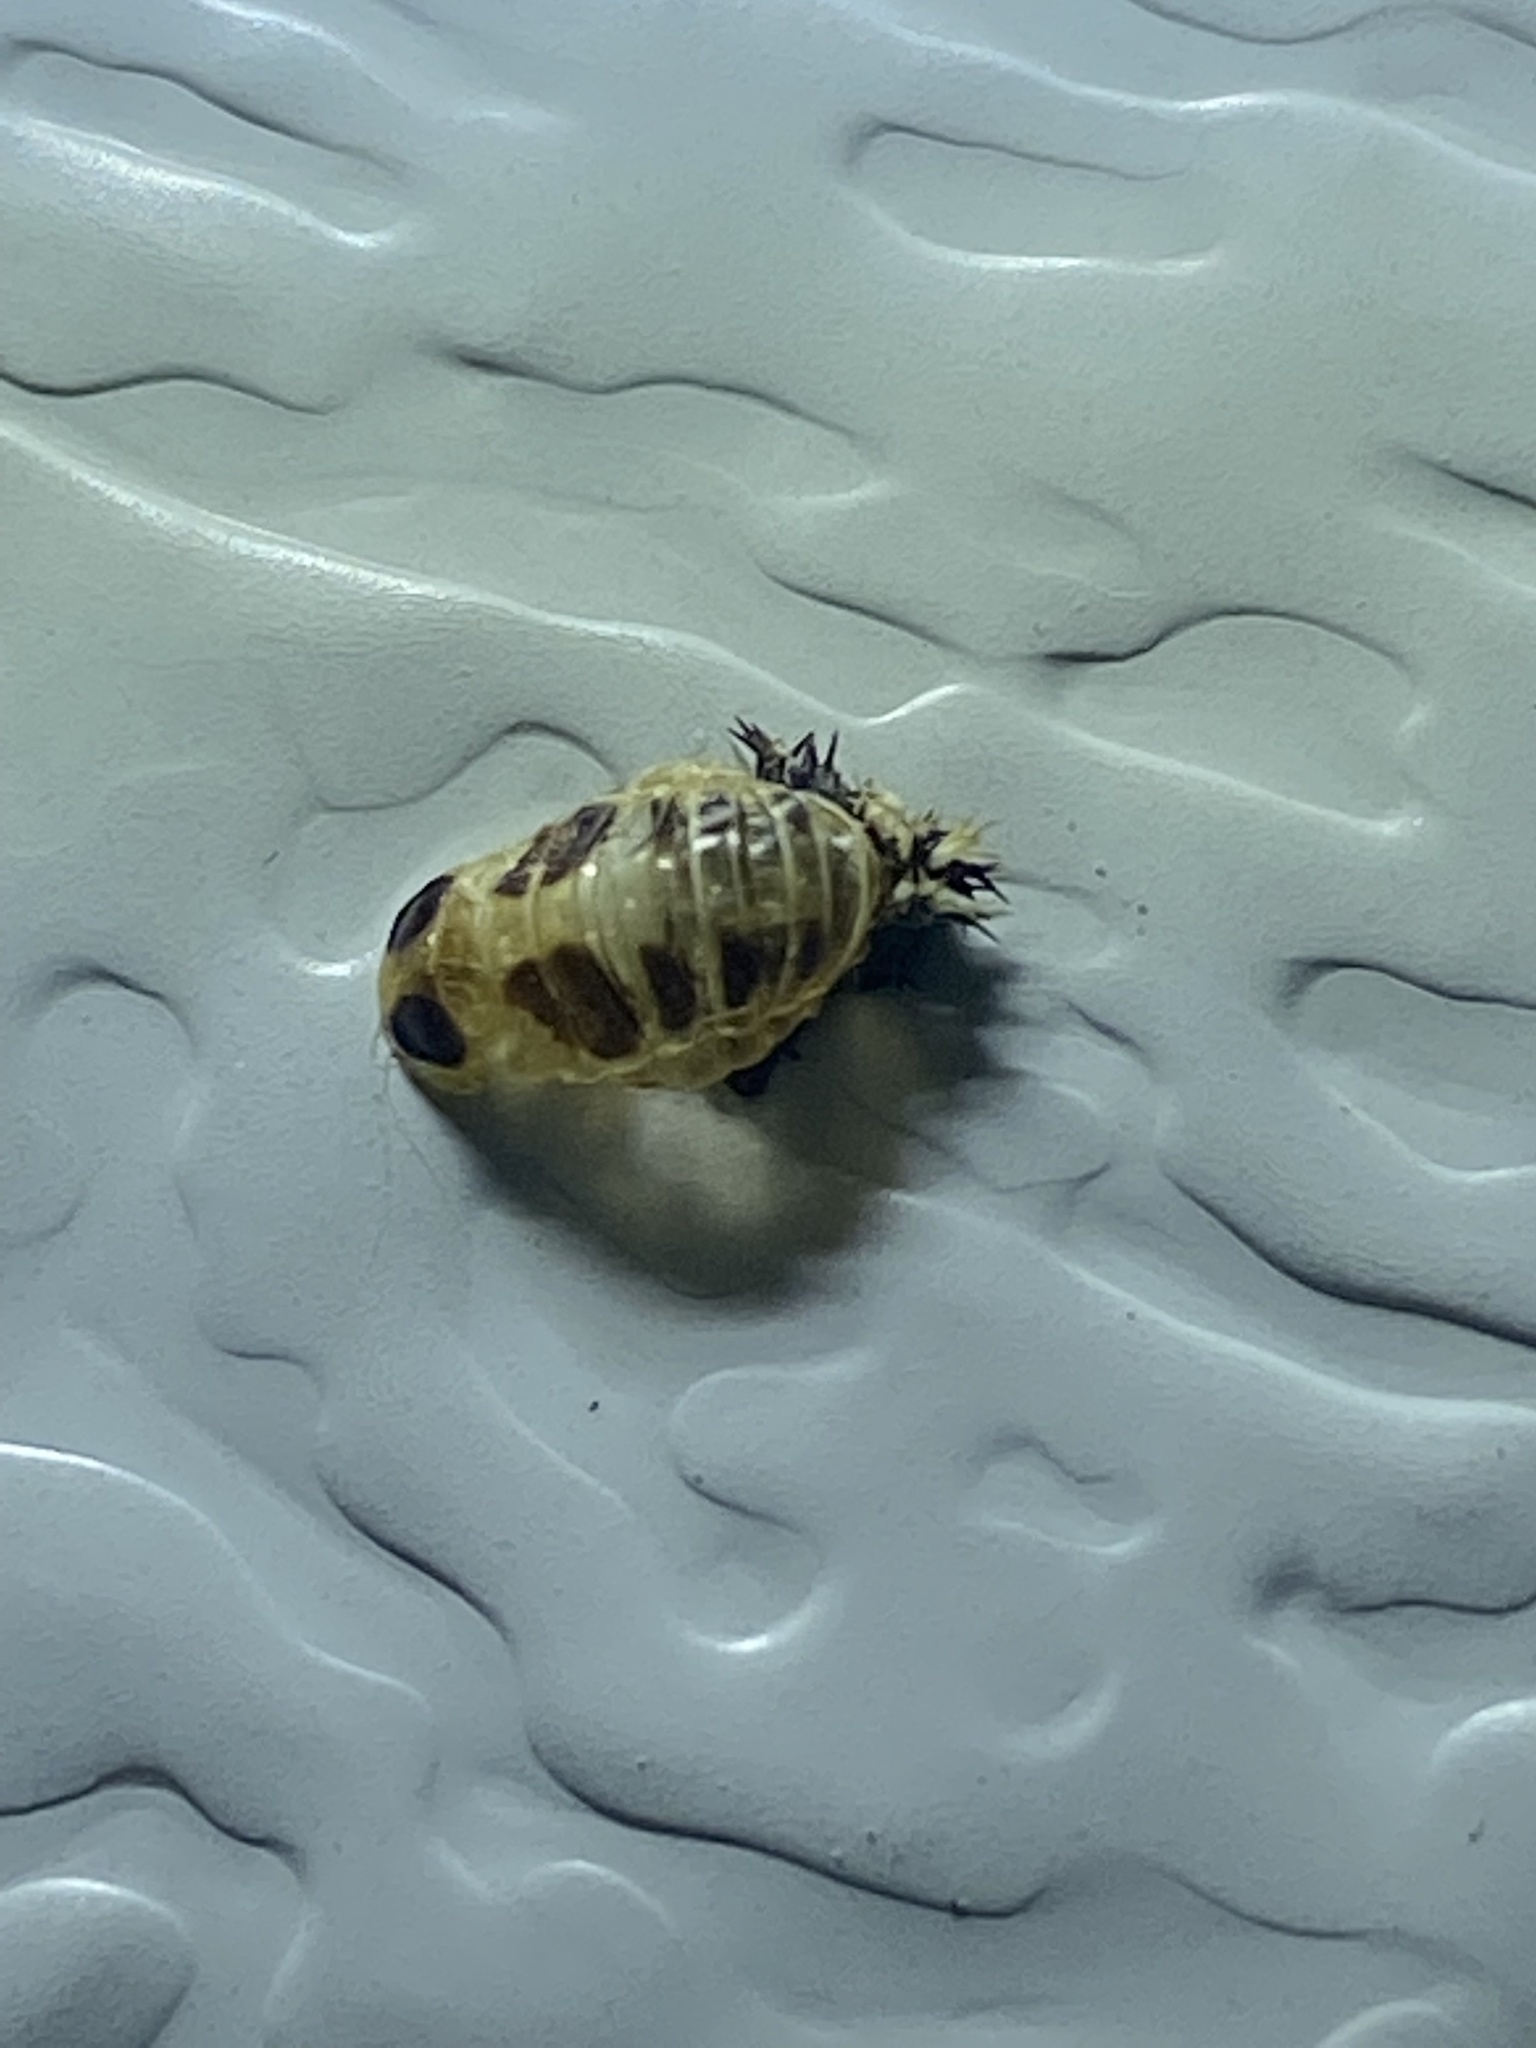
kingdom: Animalia
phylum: Arthropoda
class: Insecta
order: Coleoptera
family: Coccinellidae
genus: Harmonia
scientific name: Harmonia axyridis
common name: Harlequin ladybird
